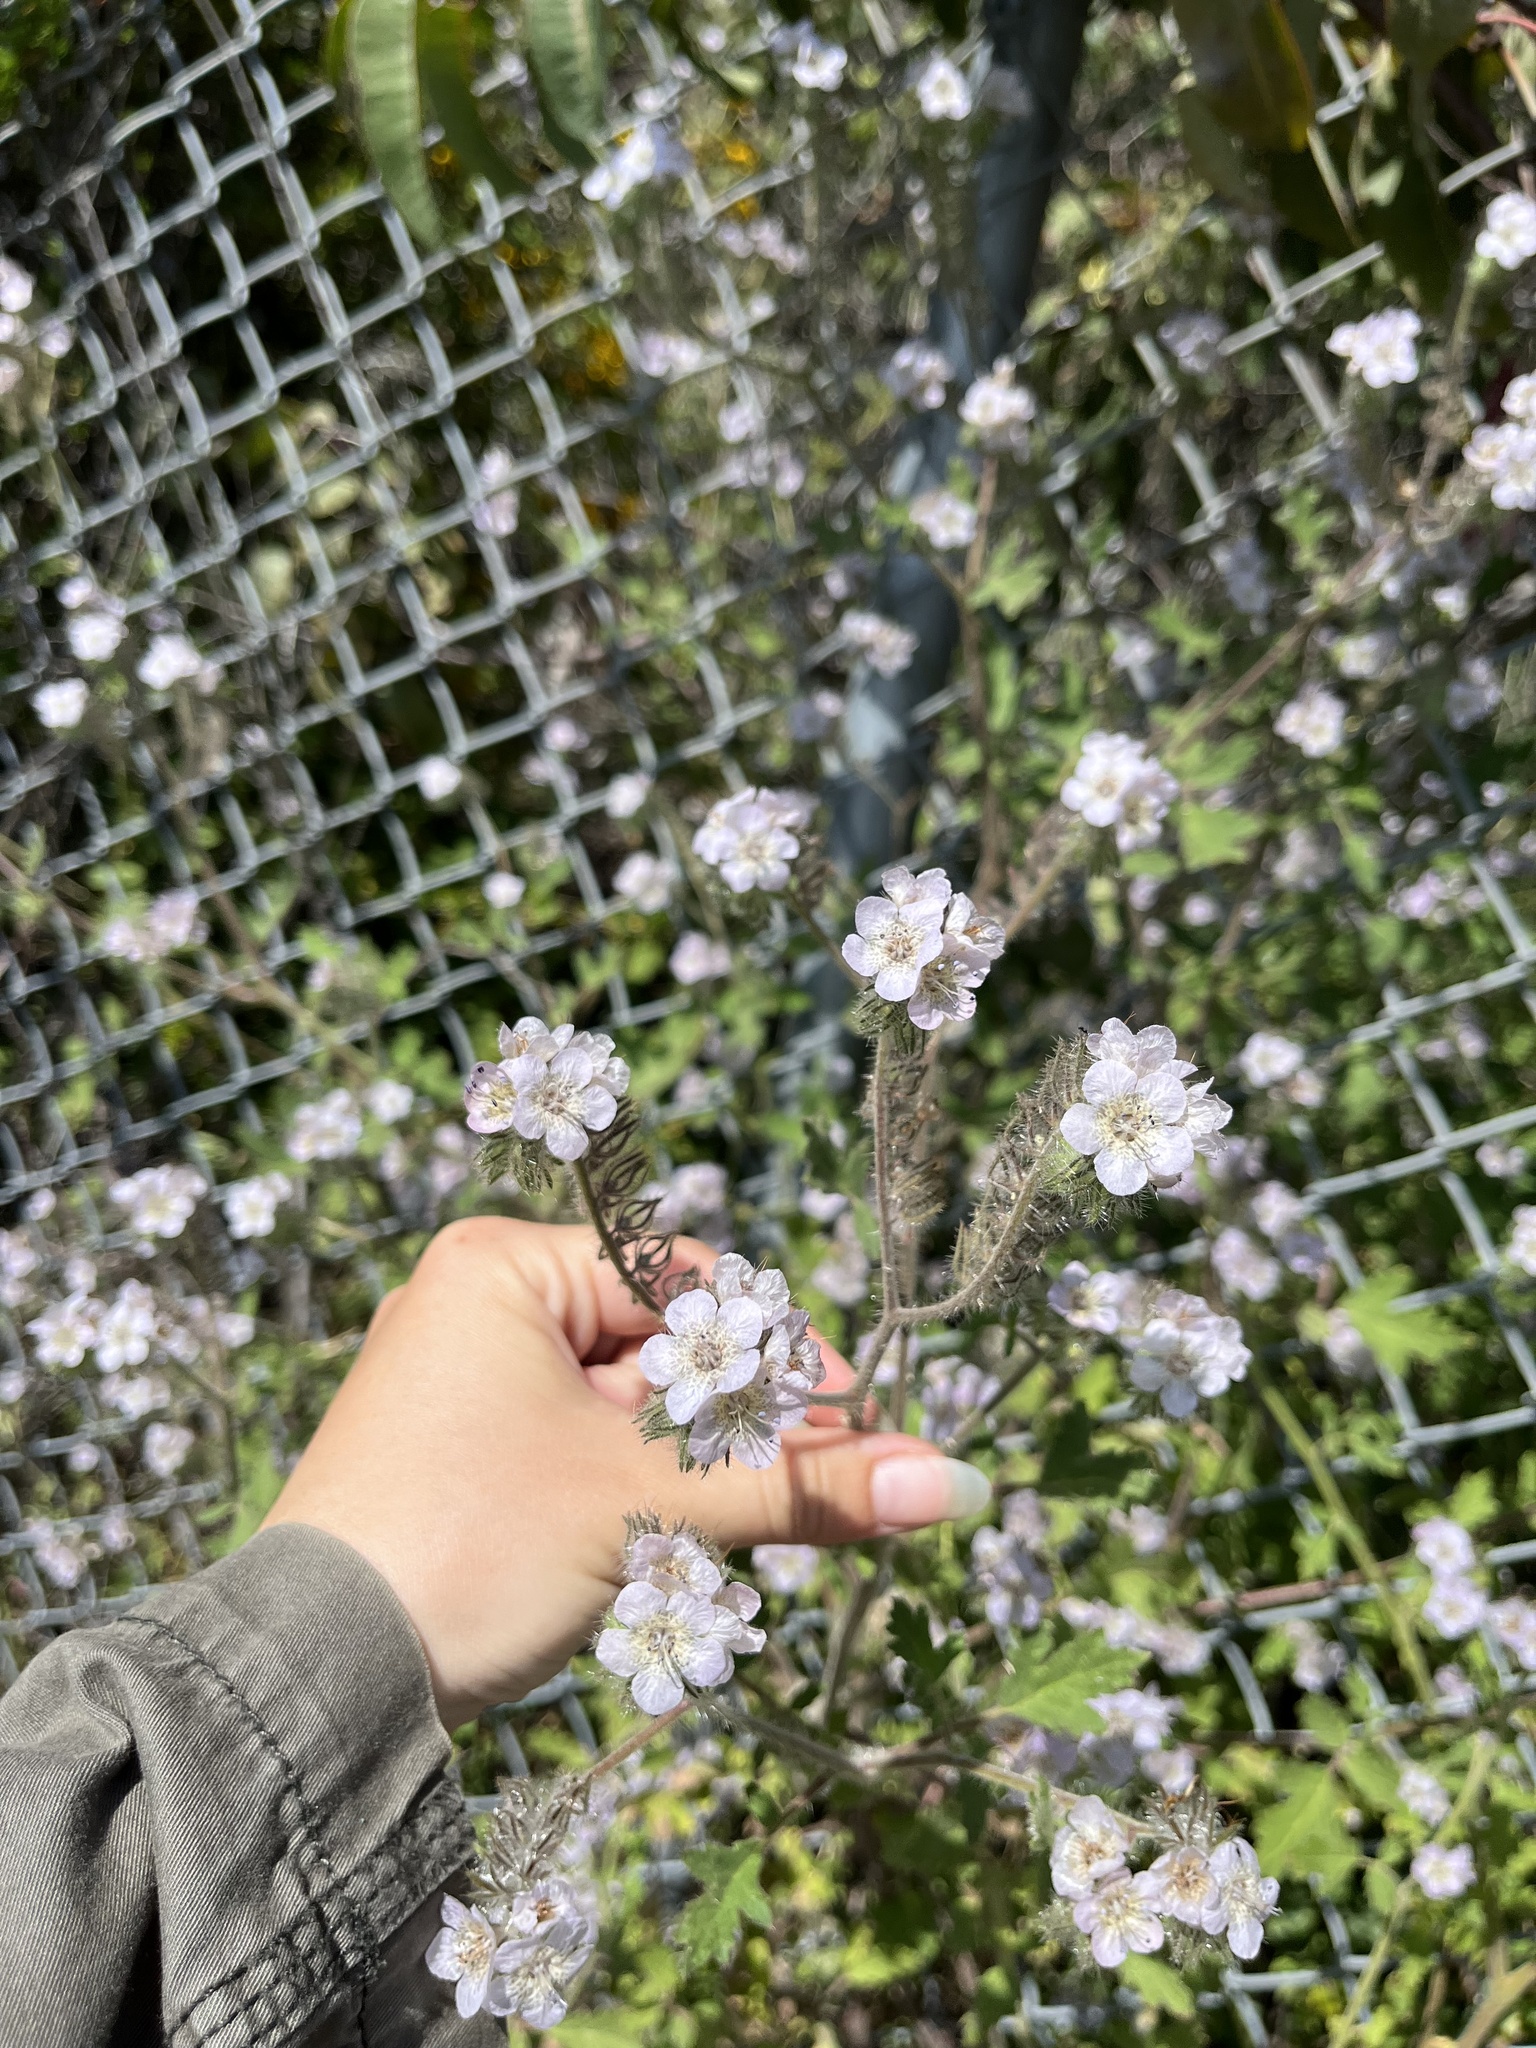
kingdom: Plantae
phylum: Tracheophyta
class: Magnoliopsida
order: Boraginales
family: Hydrophyllaceae
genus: Phacelia
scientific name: Phacelia cicutaria
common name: Caterpillar phacelia
